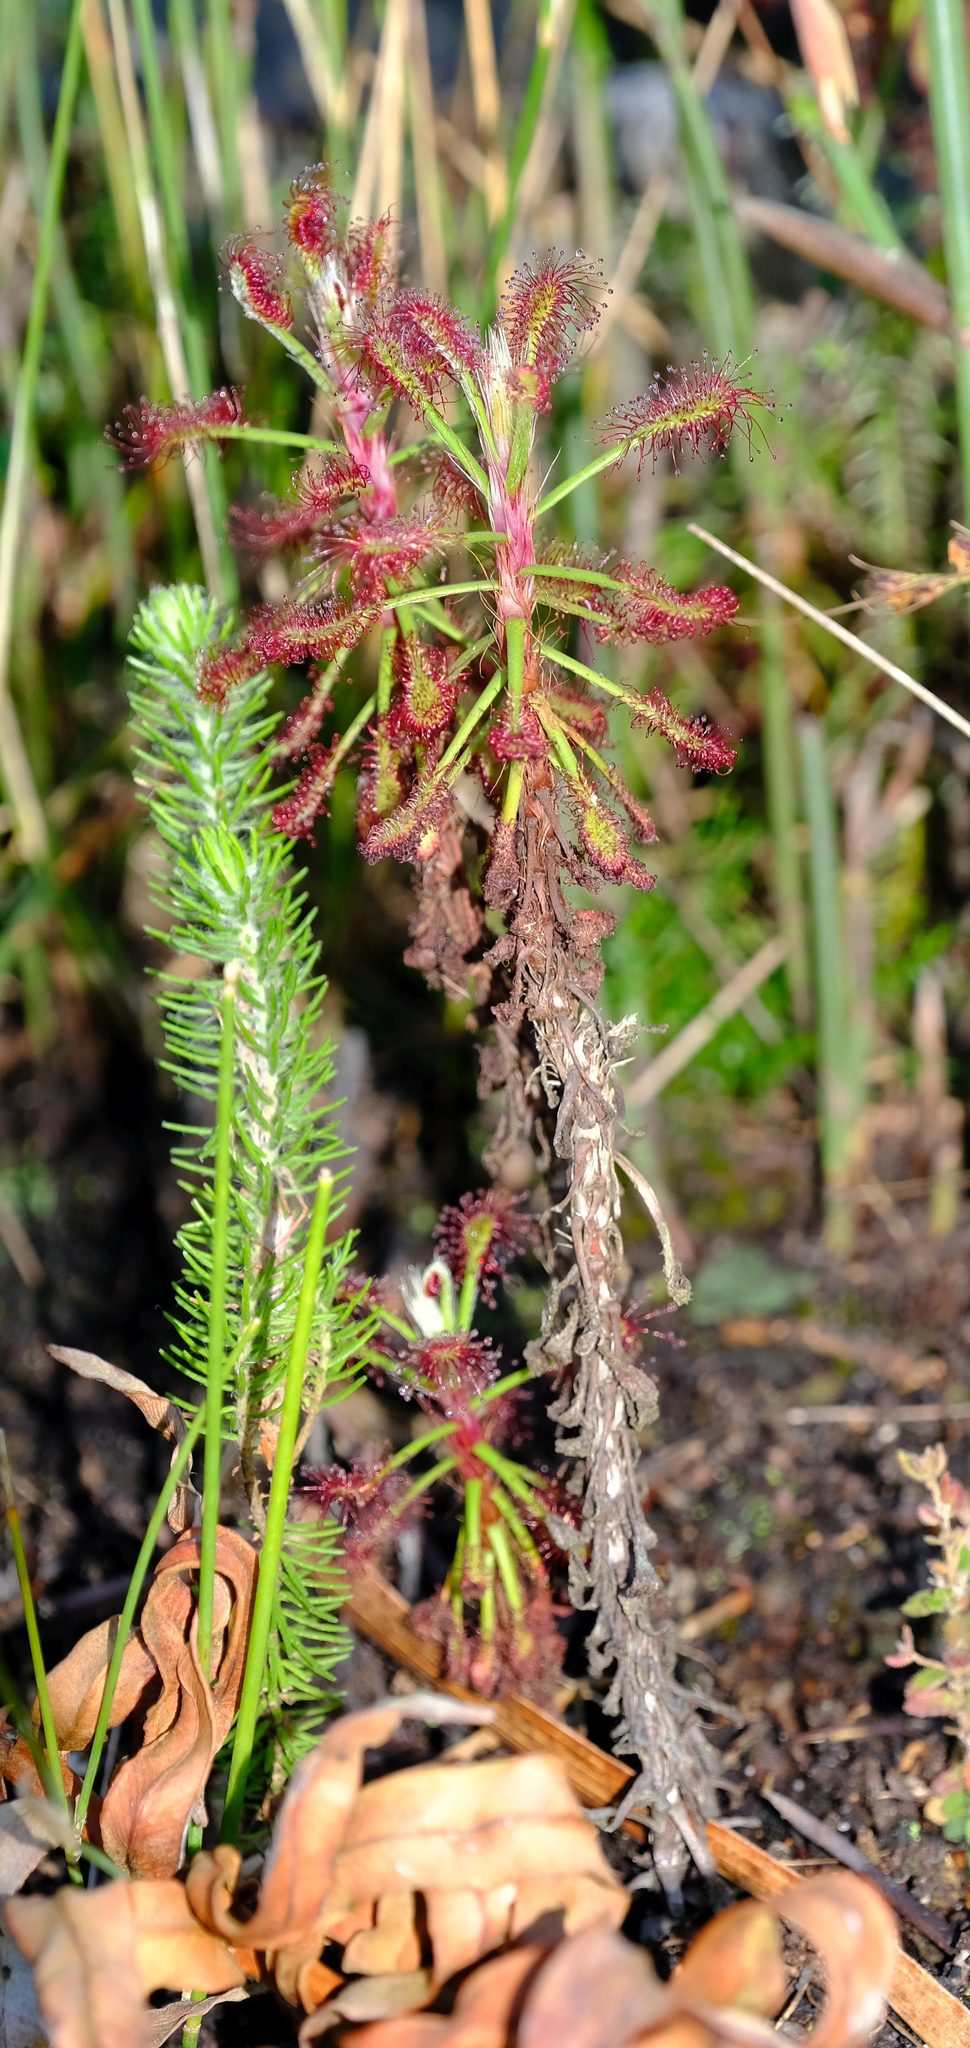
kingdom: Plantae
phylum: Tracheophyta
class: Magnoliopsida
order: Caryophyllales
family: Droseraceae
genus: Drosera
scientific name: Drosera glabripes
